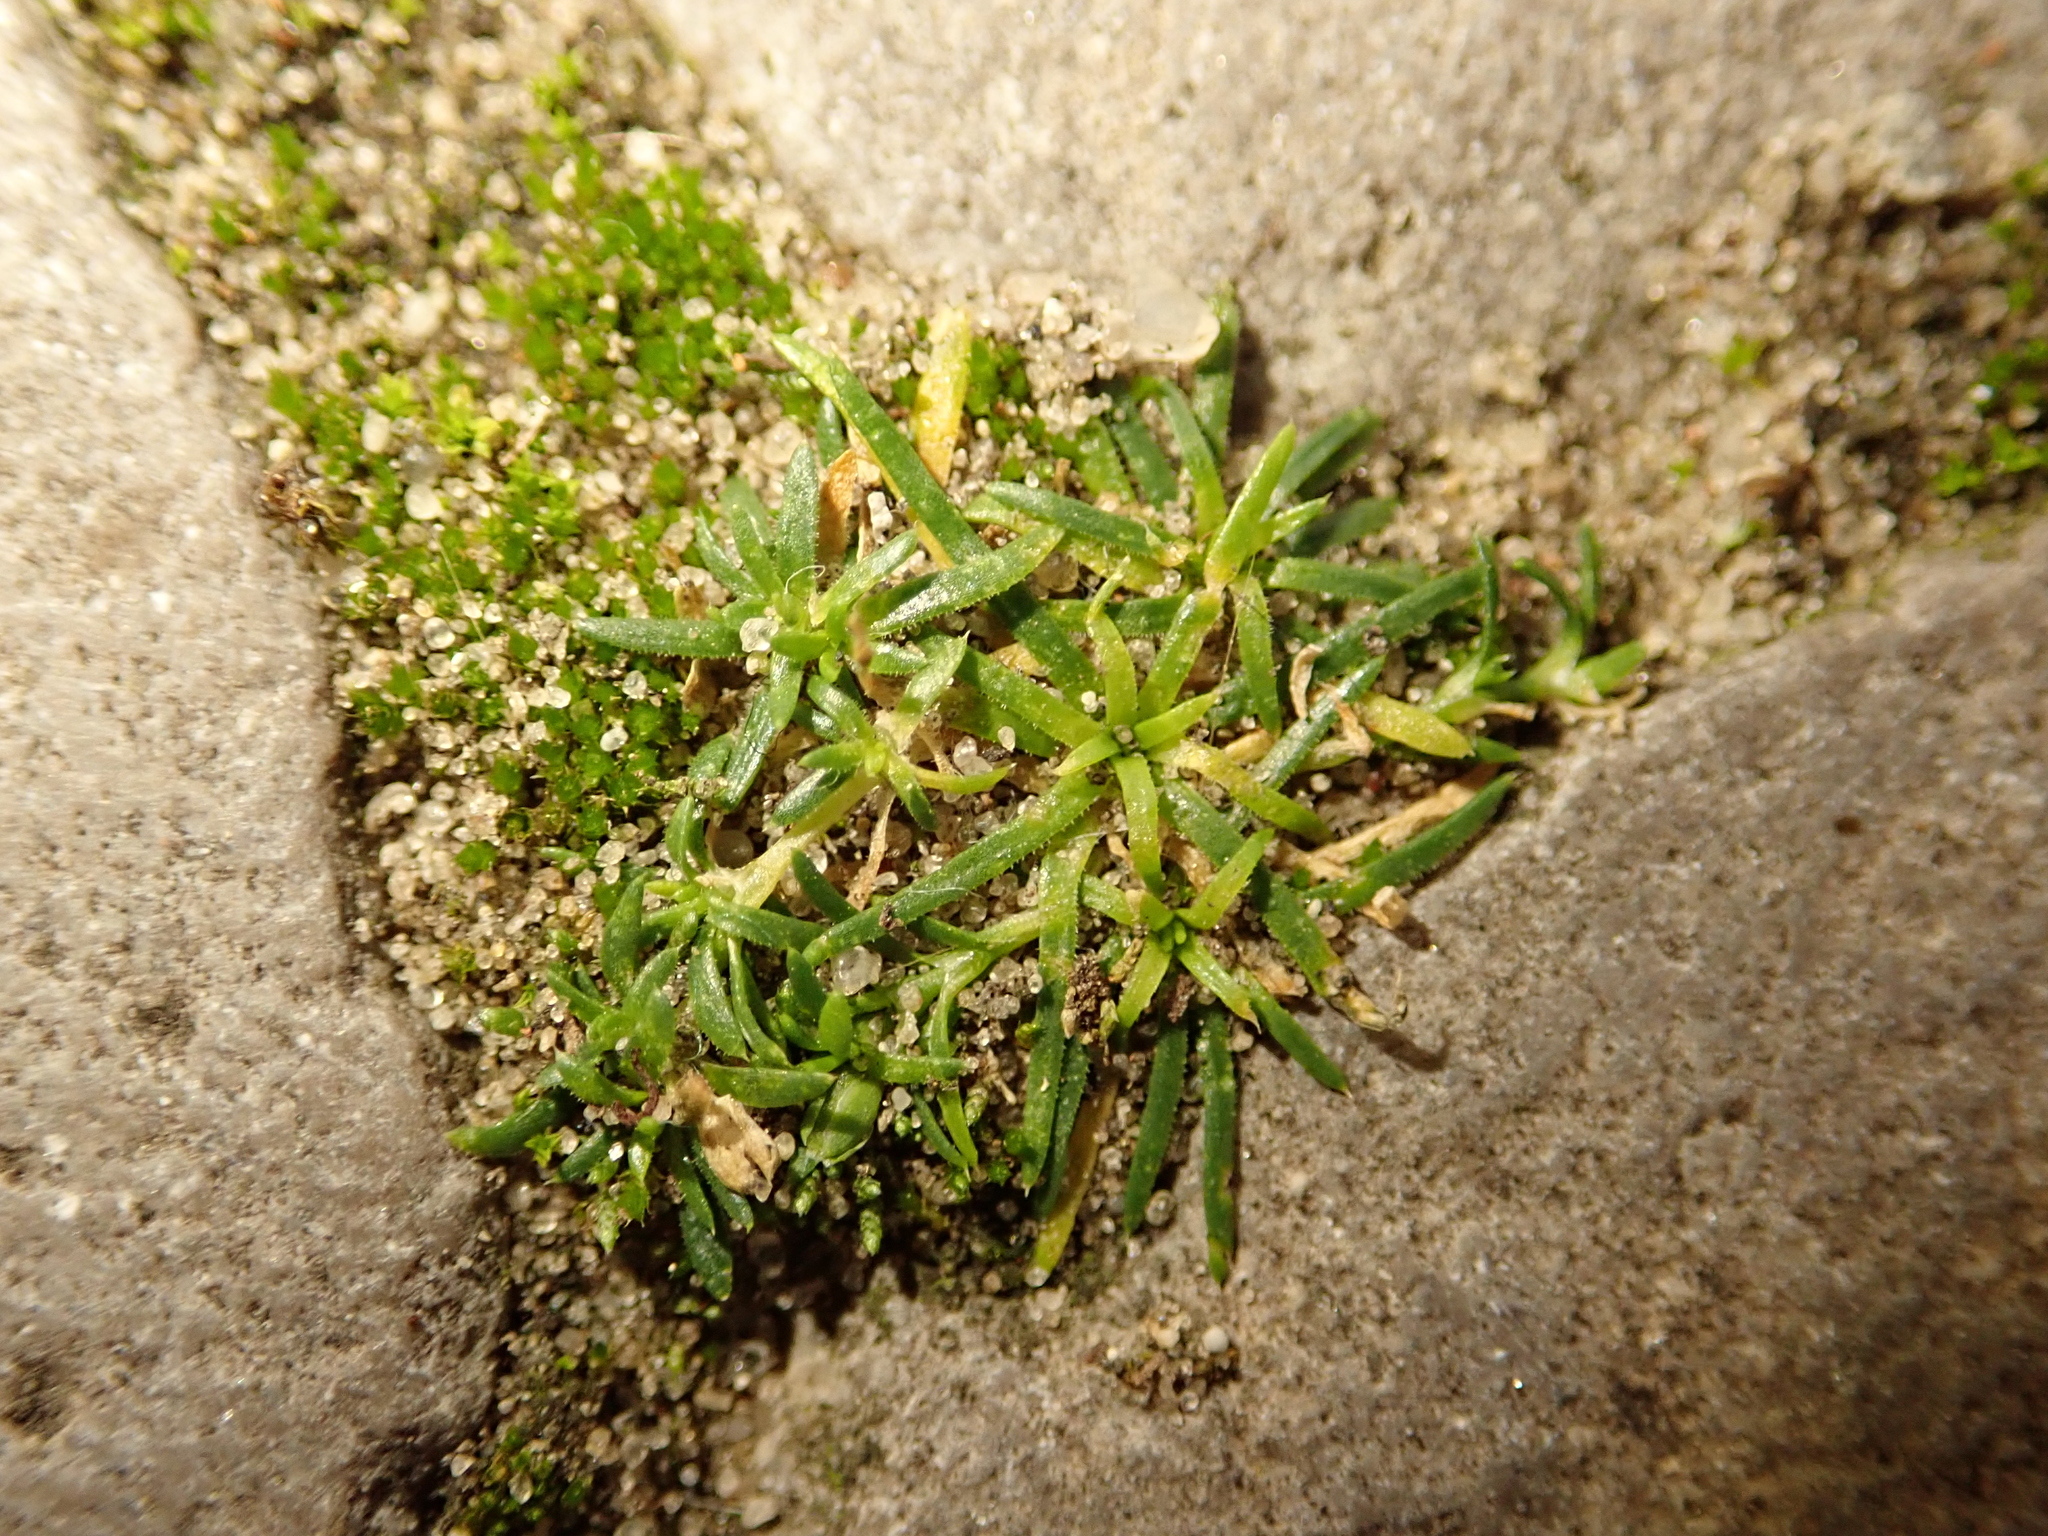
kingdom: Plantae
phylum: Tracheophyta
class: Magnoliopsida
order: Caryophyllales
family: Caryophyllaceae
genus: Sagina
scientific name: Sagina procumbens
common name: Procumbent pearlwort
